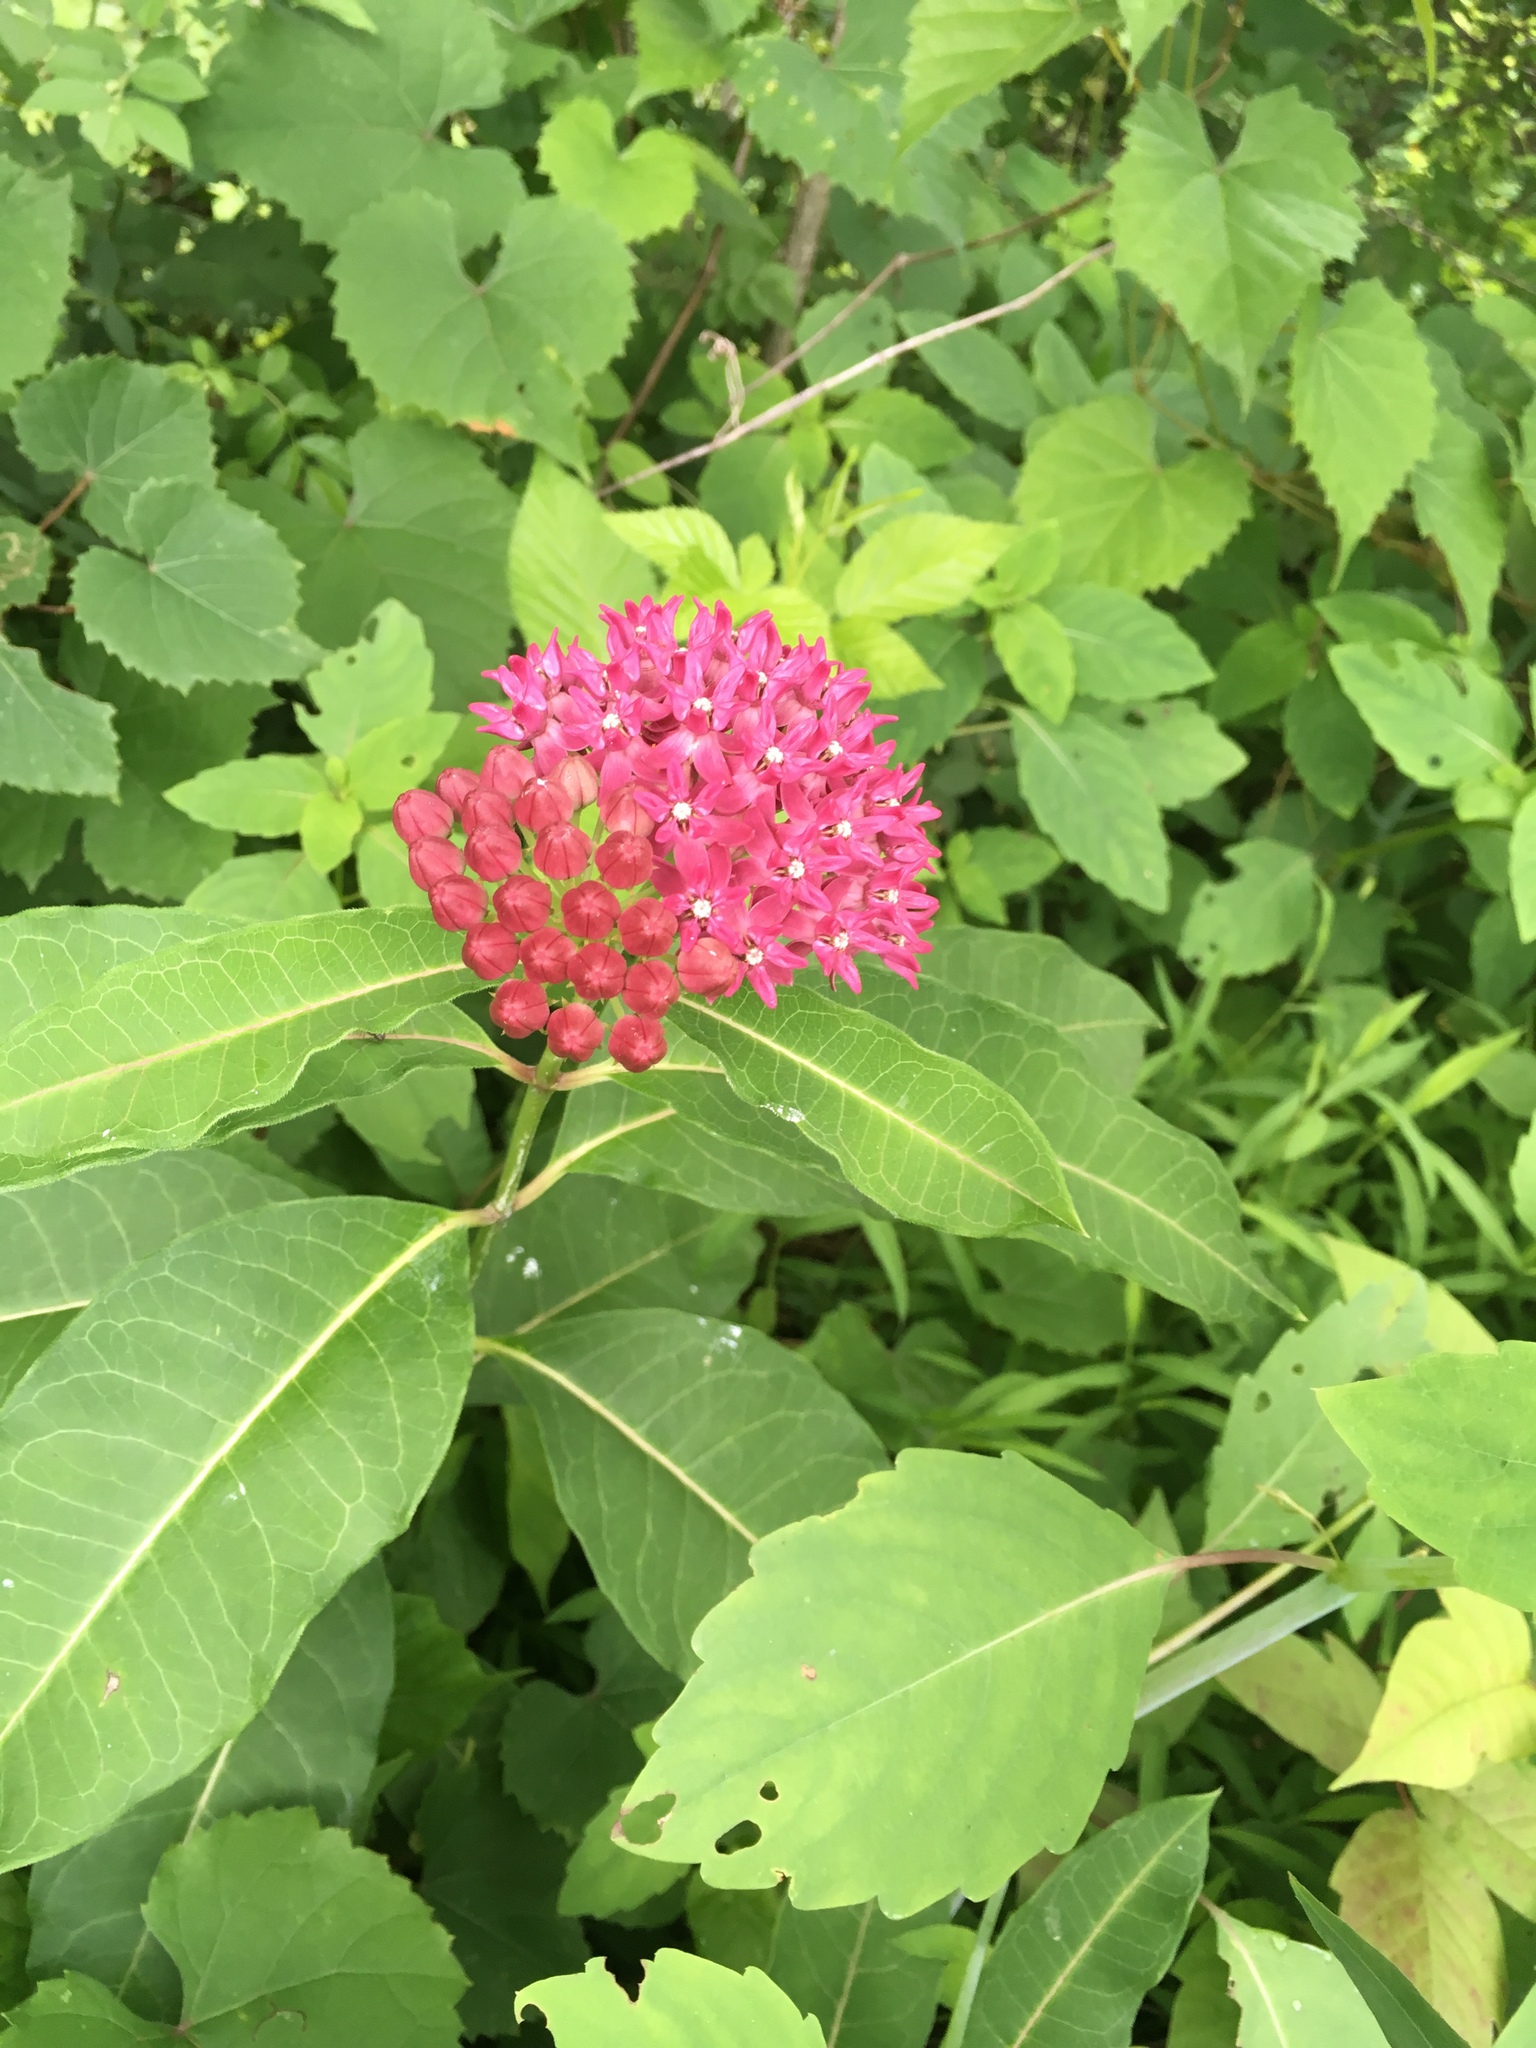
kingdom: Plantae
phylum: Tracheophyta
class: Magnoliopsida
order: Gentianales
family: Apocynaceae
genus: Asclepias
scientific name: Asclepias purpurascens
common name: Purple milkweed
